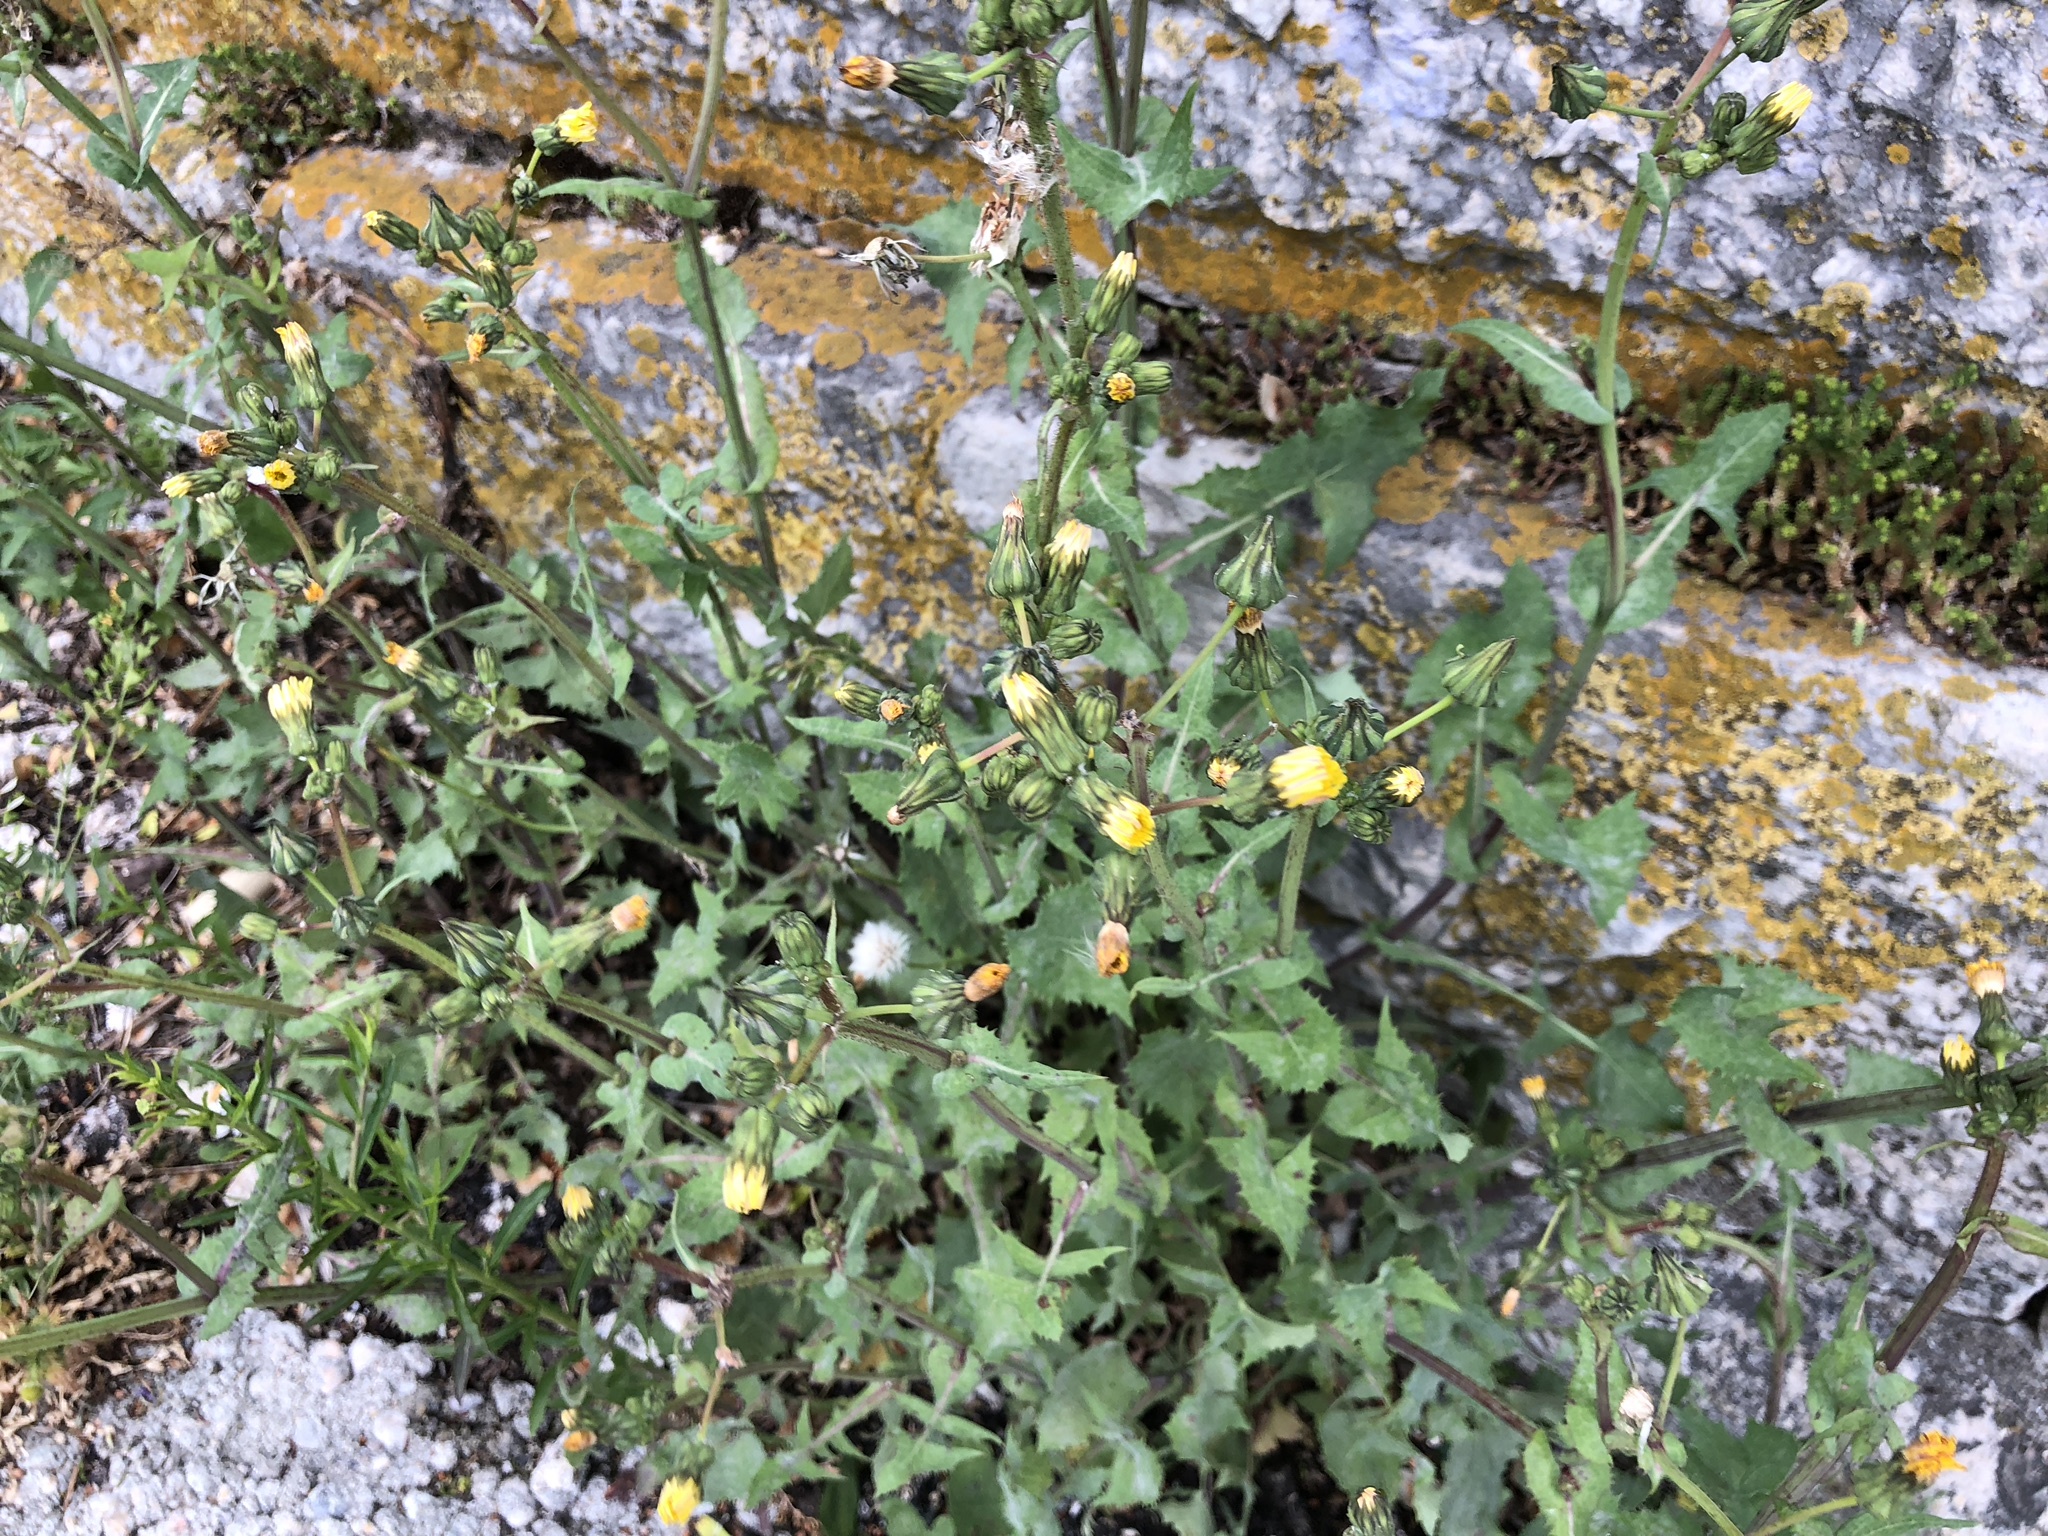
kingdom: Plantae
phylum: Tracheophyta
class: Magnoliopsida
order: Asterales
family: Asteraceae
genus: Sonchus
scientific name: Sonchus oleraceus
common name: Common sowthistle
